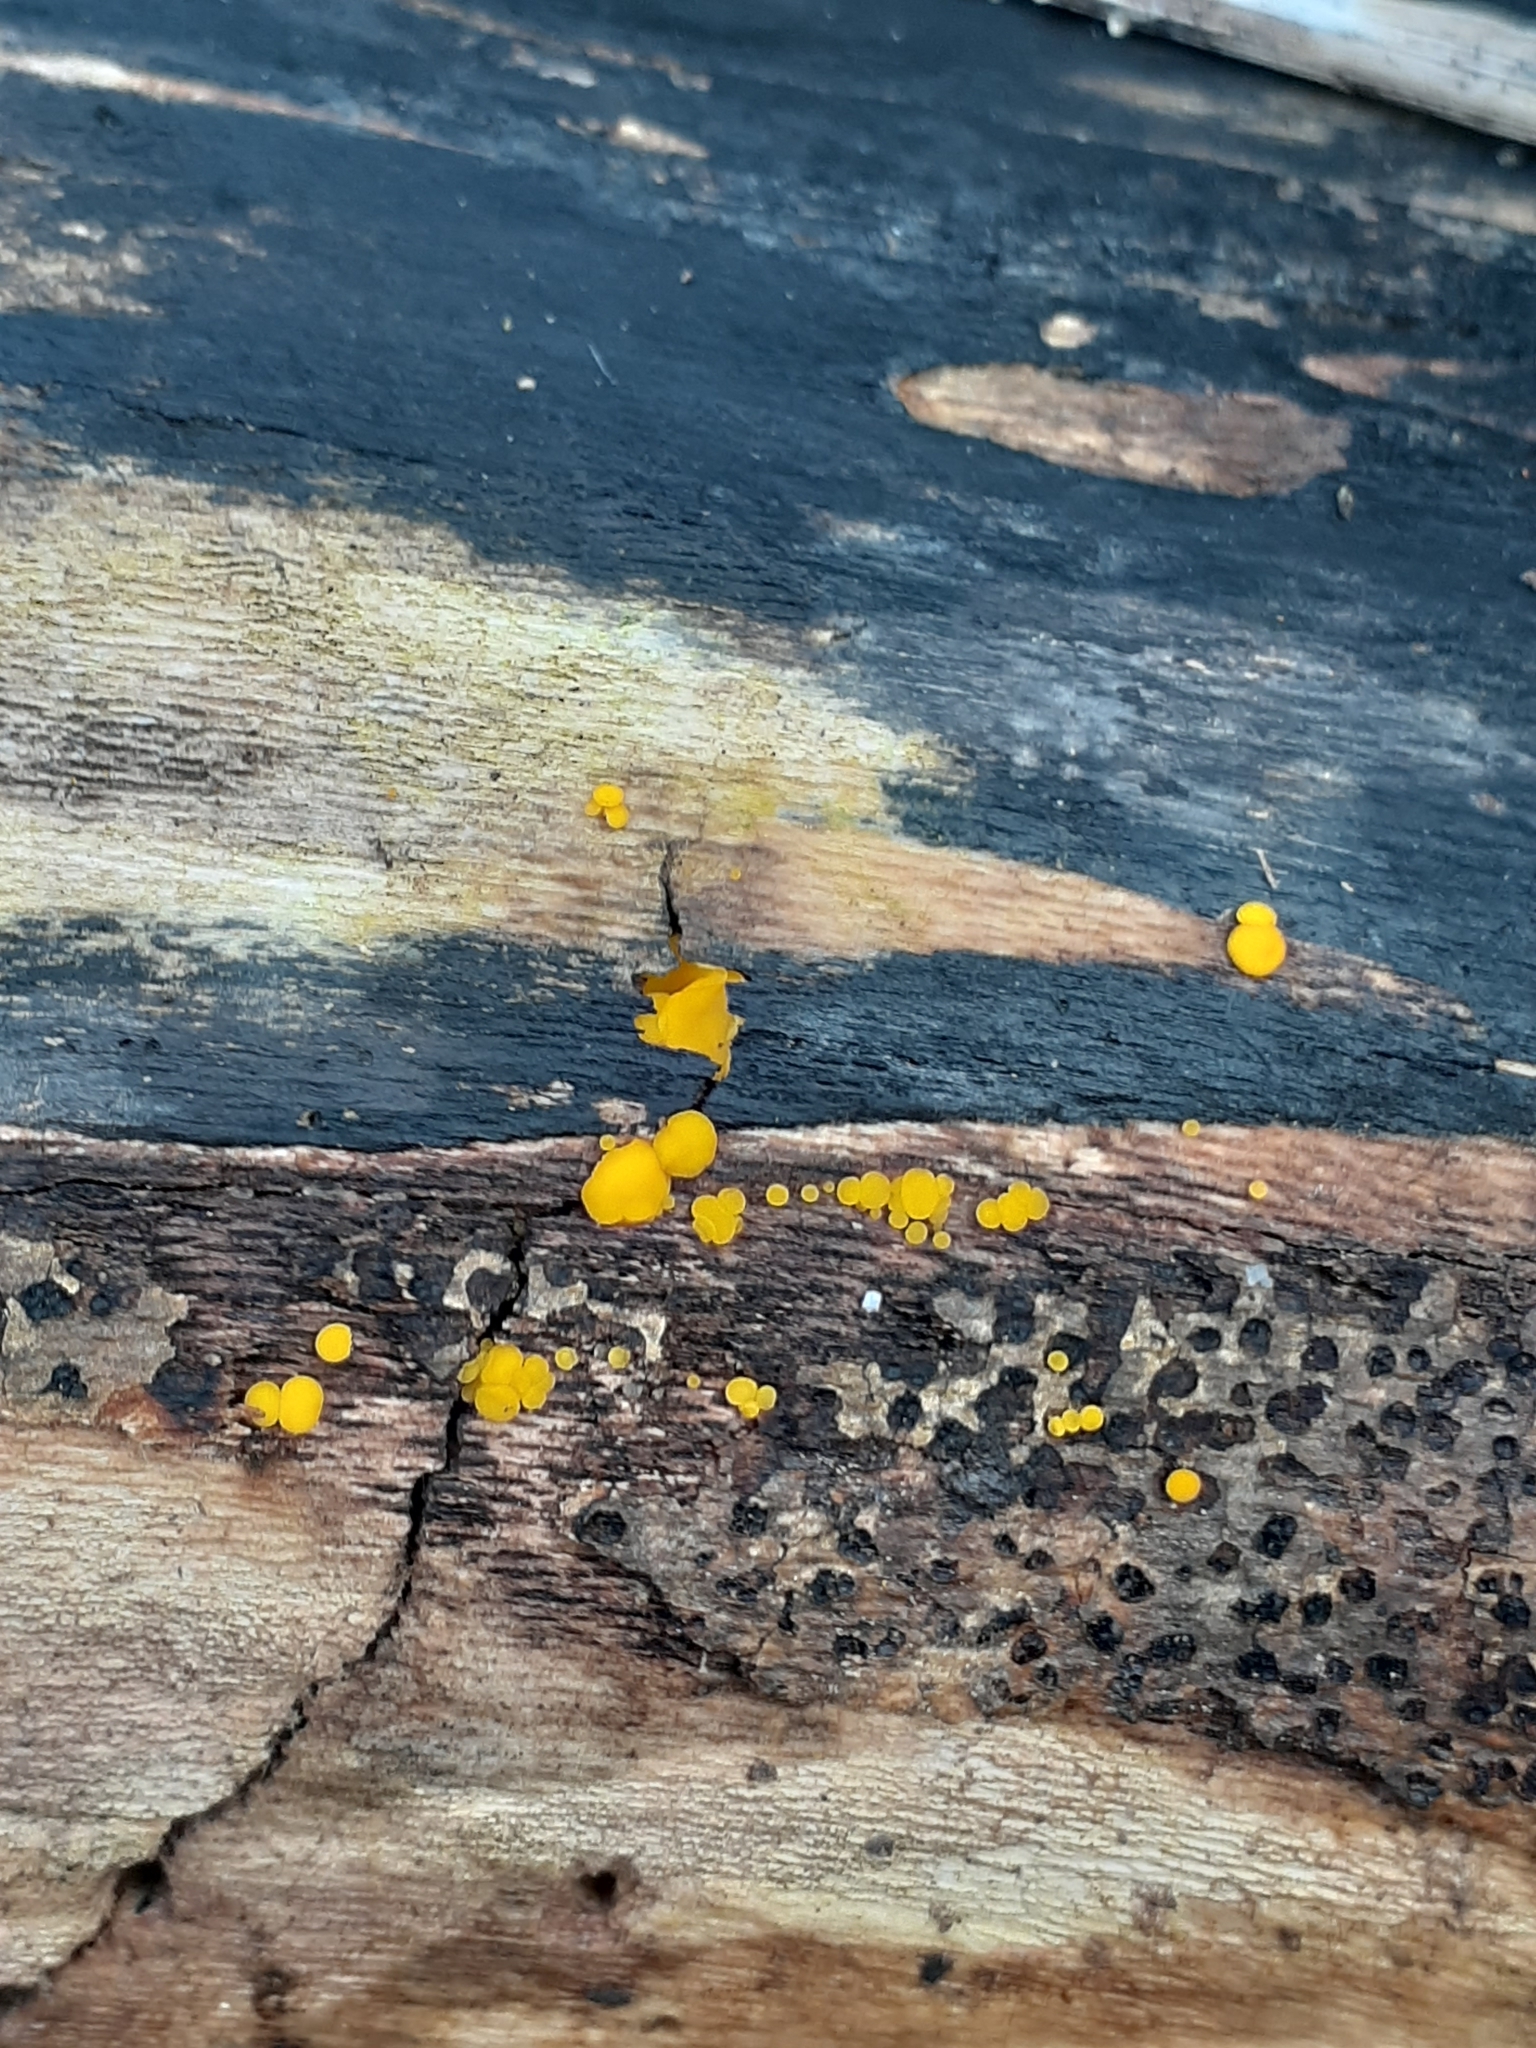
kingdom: Fungi
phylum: Ascomycota
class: Leotiomycetes
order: Helotiales
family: Pezizellaceae
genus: Calycina
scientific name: Calycina citrina
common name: Yellow fairy cups
